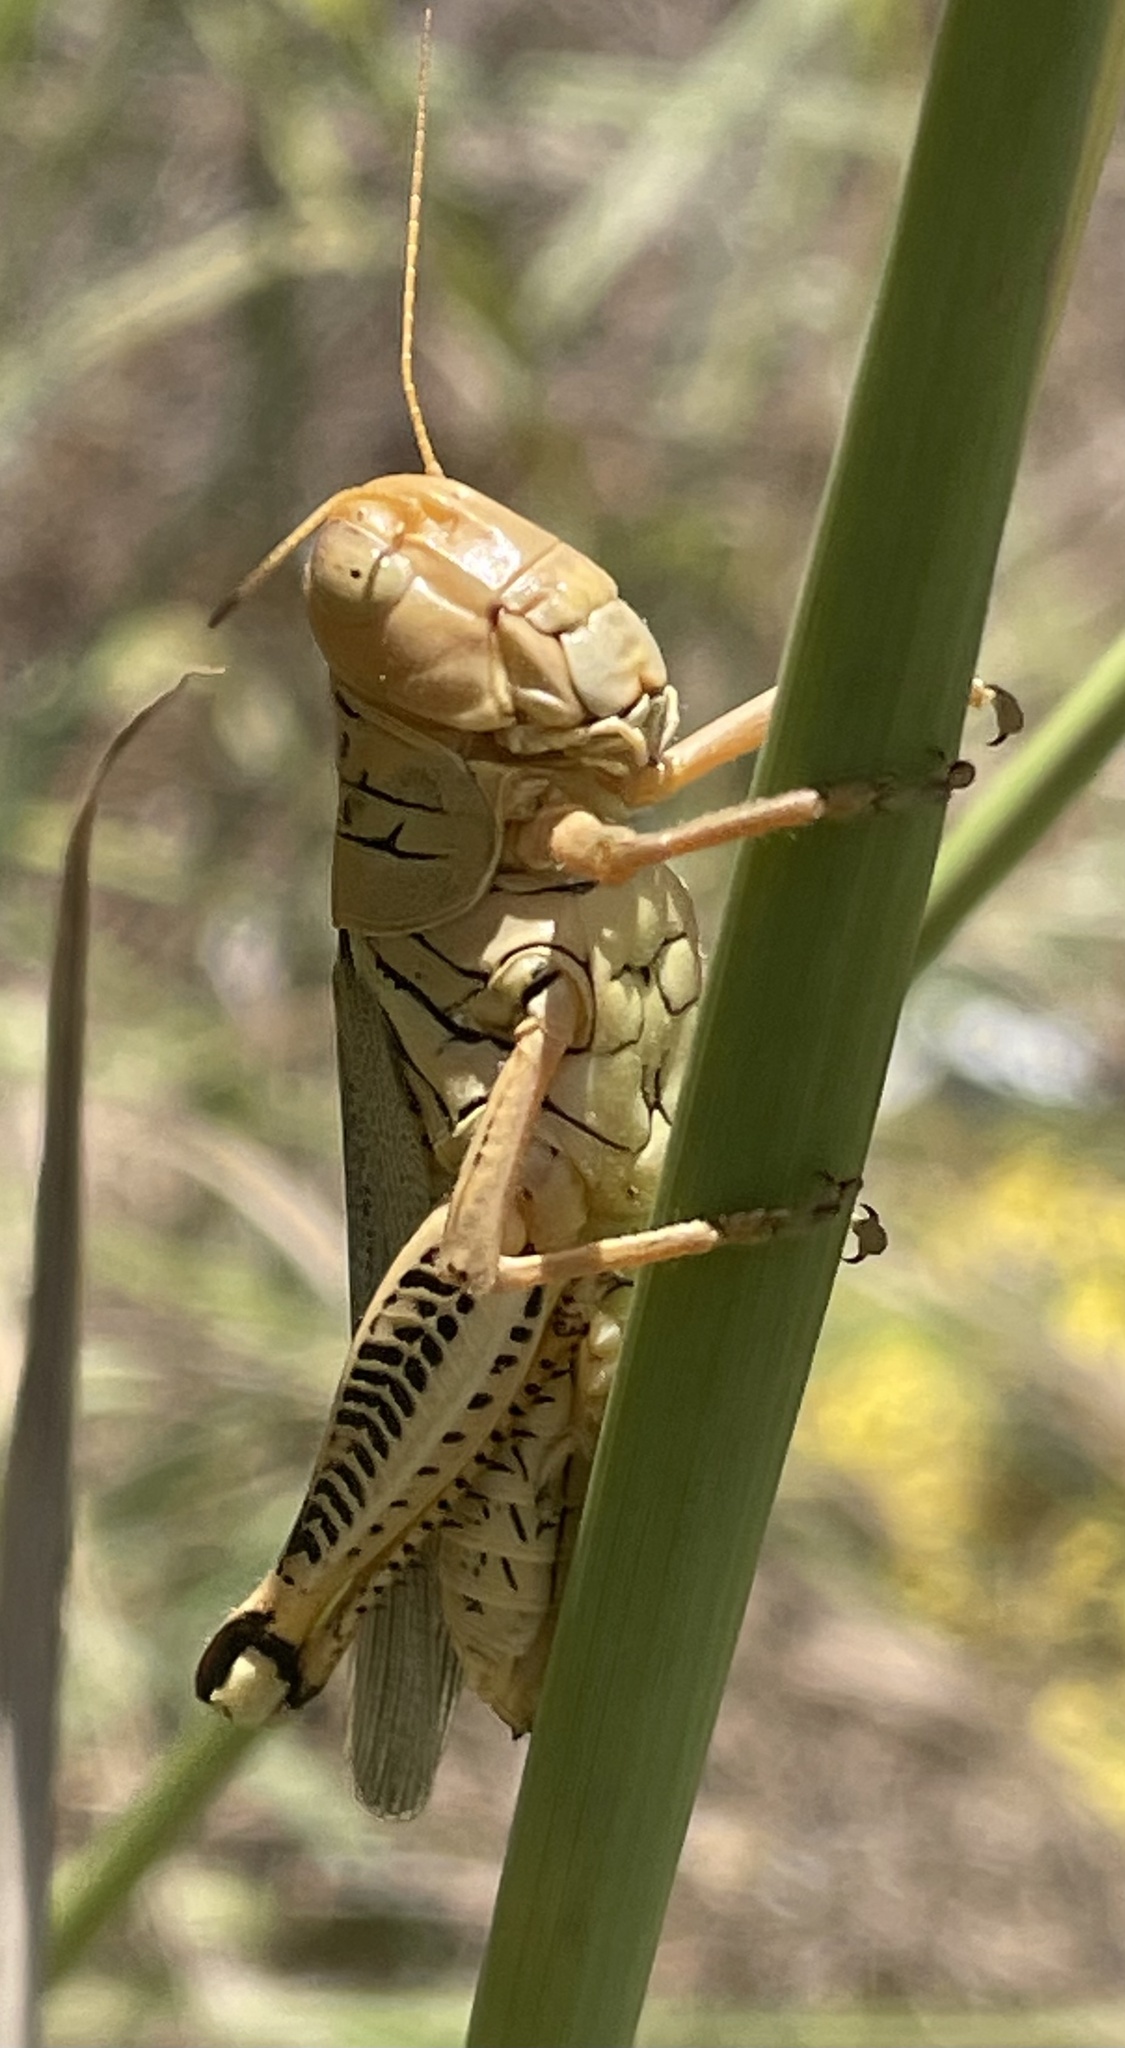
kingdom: Animalia
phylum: Arthropoda
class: Insecta
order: Orthoptera
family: Acrididae
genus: Melanoplus
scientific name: Melanoplus differentialis
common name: Differential grasshopper
